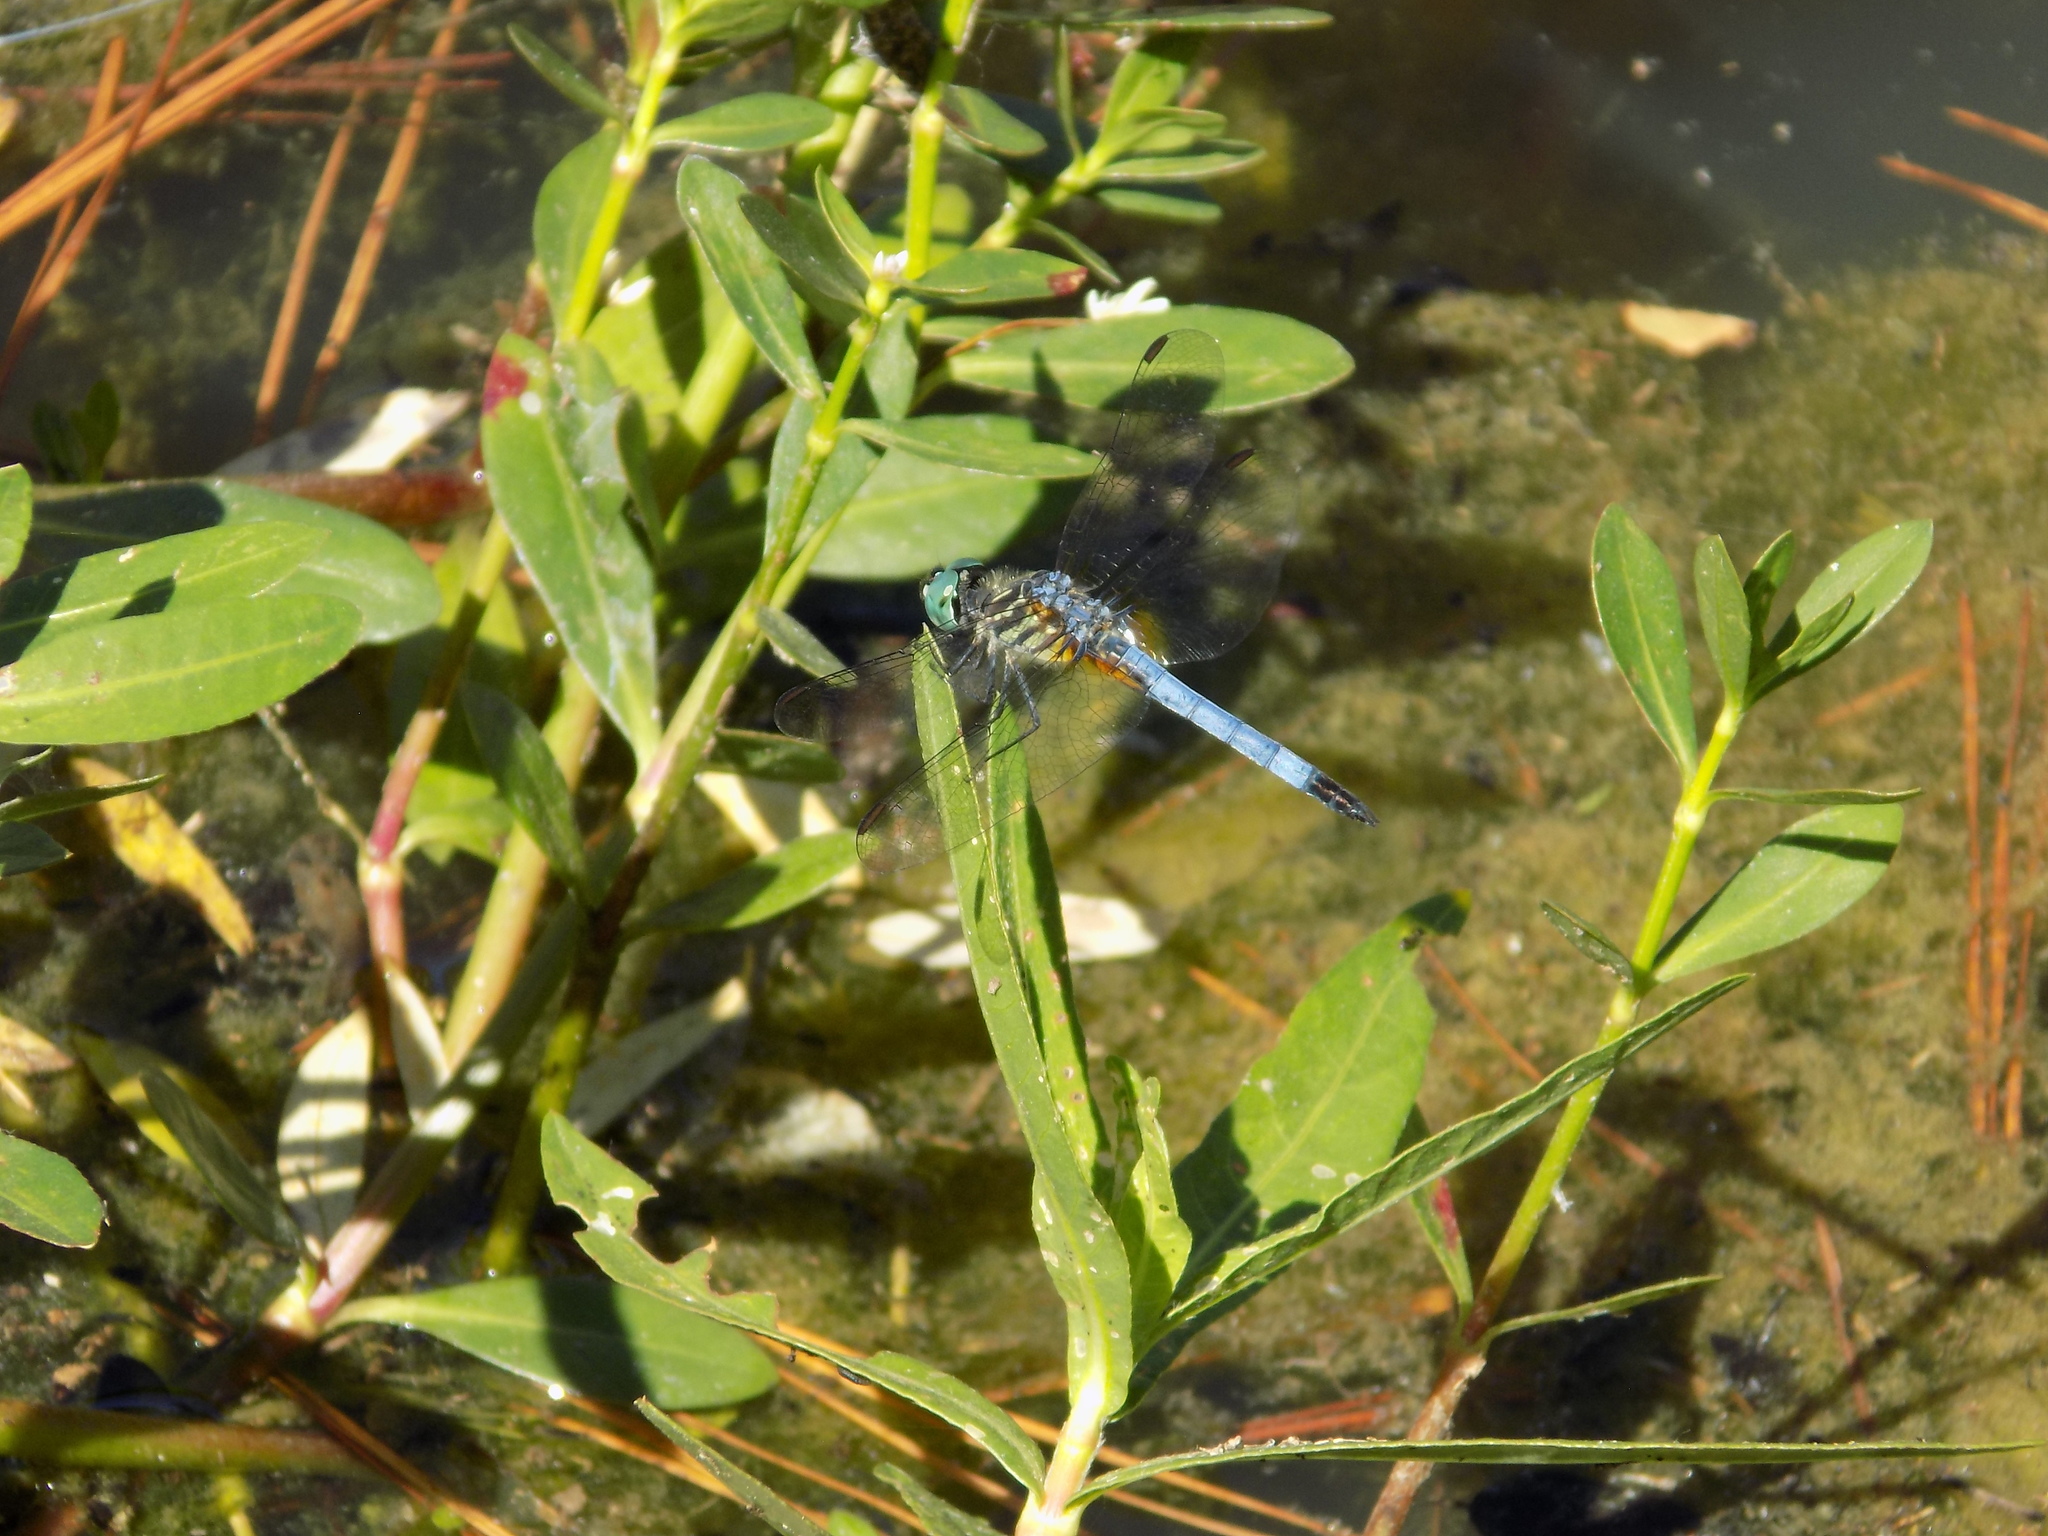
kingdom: Animalia
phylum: Arthropoda
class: Insecta
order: Odonata
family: Libellulidae
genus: Pachydiplax
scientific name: Pachydiplax longipennis
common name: Blue dasher
